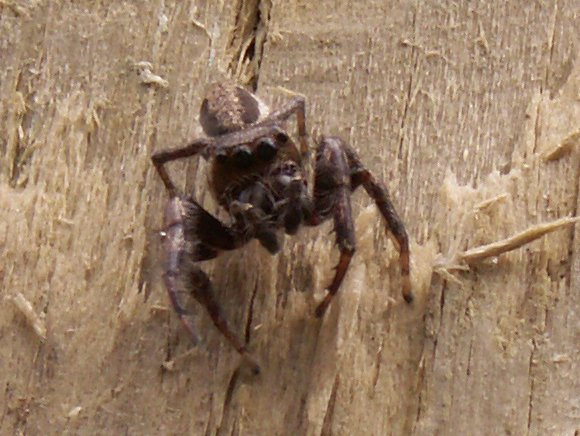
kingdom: Animalia
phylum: Arthropoda
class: Arachnida
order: Araneae
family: Salticidae
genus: Eris
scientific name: Eris militaris
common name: Bronze jumper
